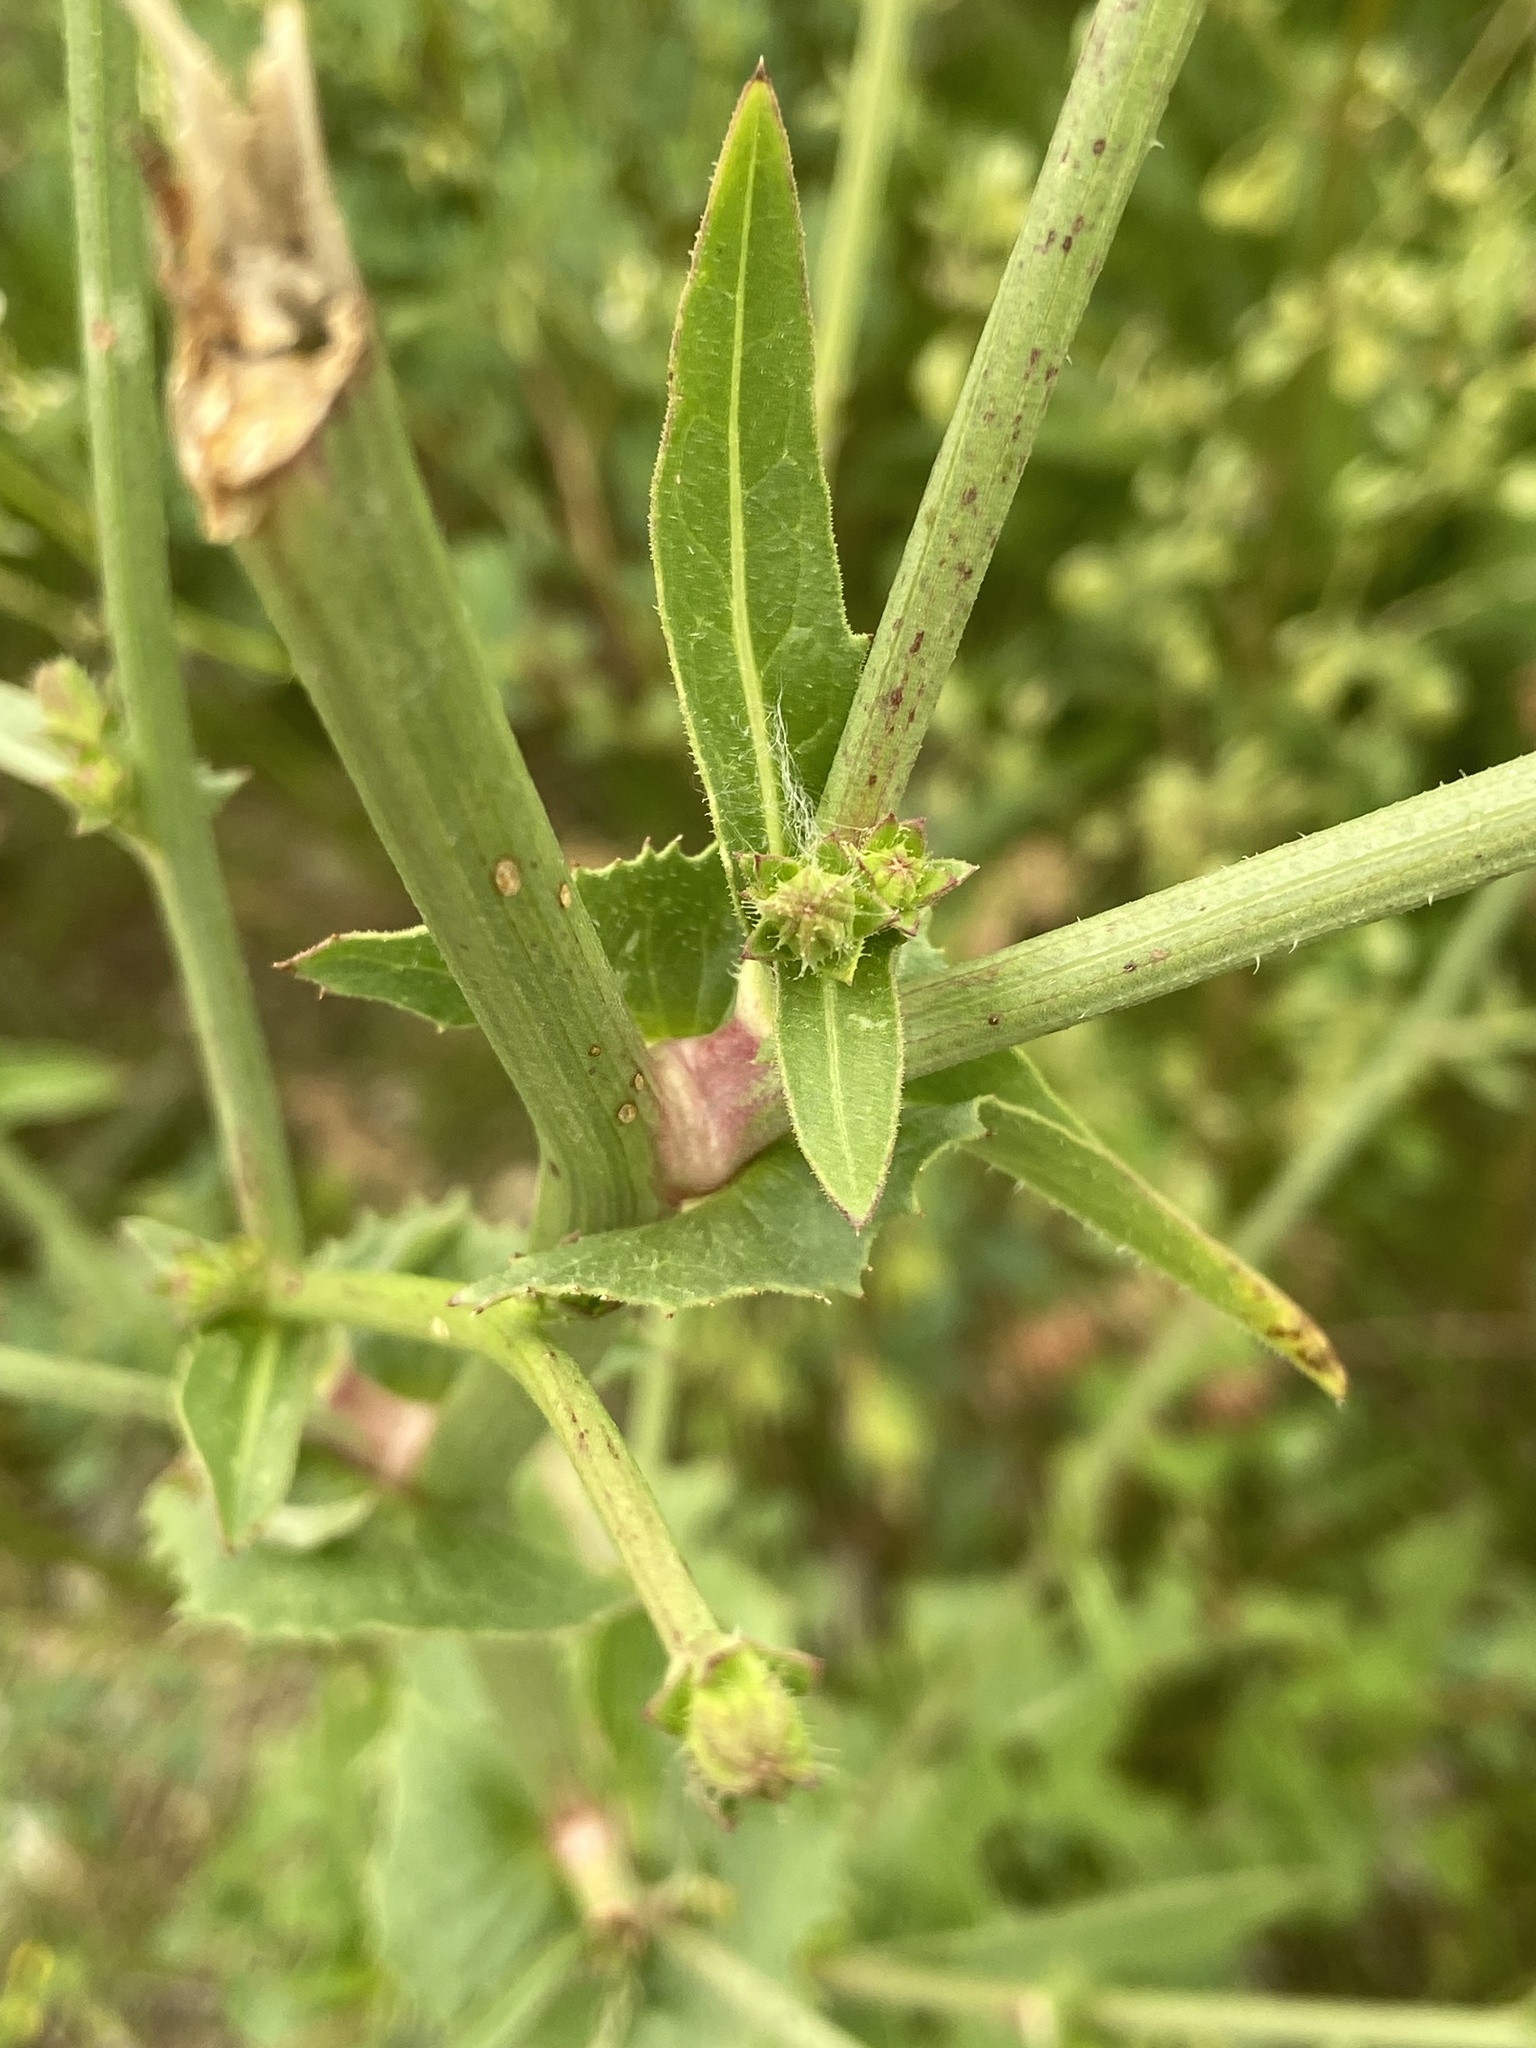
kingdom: Plantae
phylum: Tracheophyta
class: Magnoliopsida
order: Asterales
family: Asteraceae
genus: Cichorium
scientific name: Cichorium intybus
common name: Chicory
